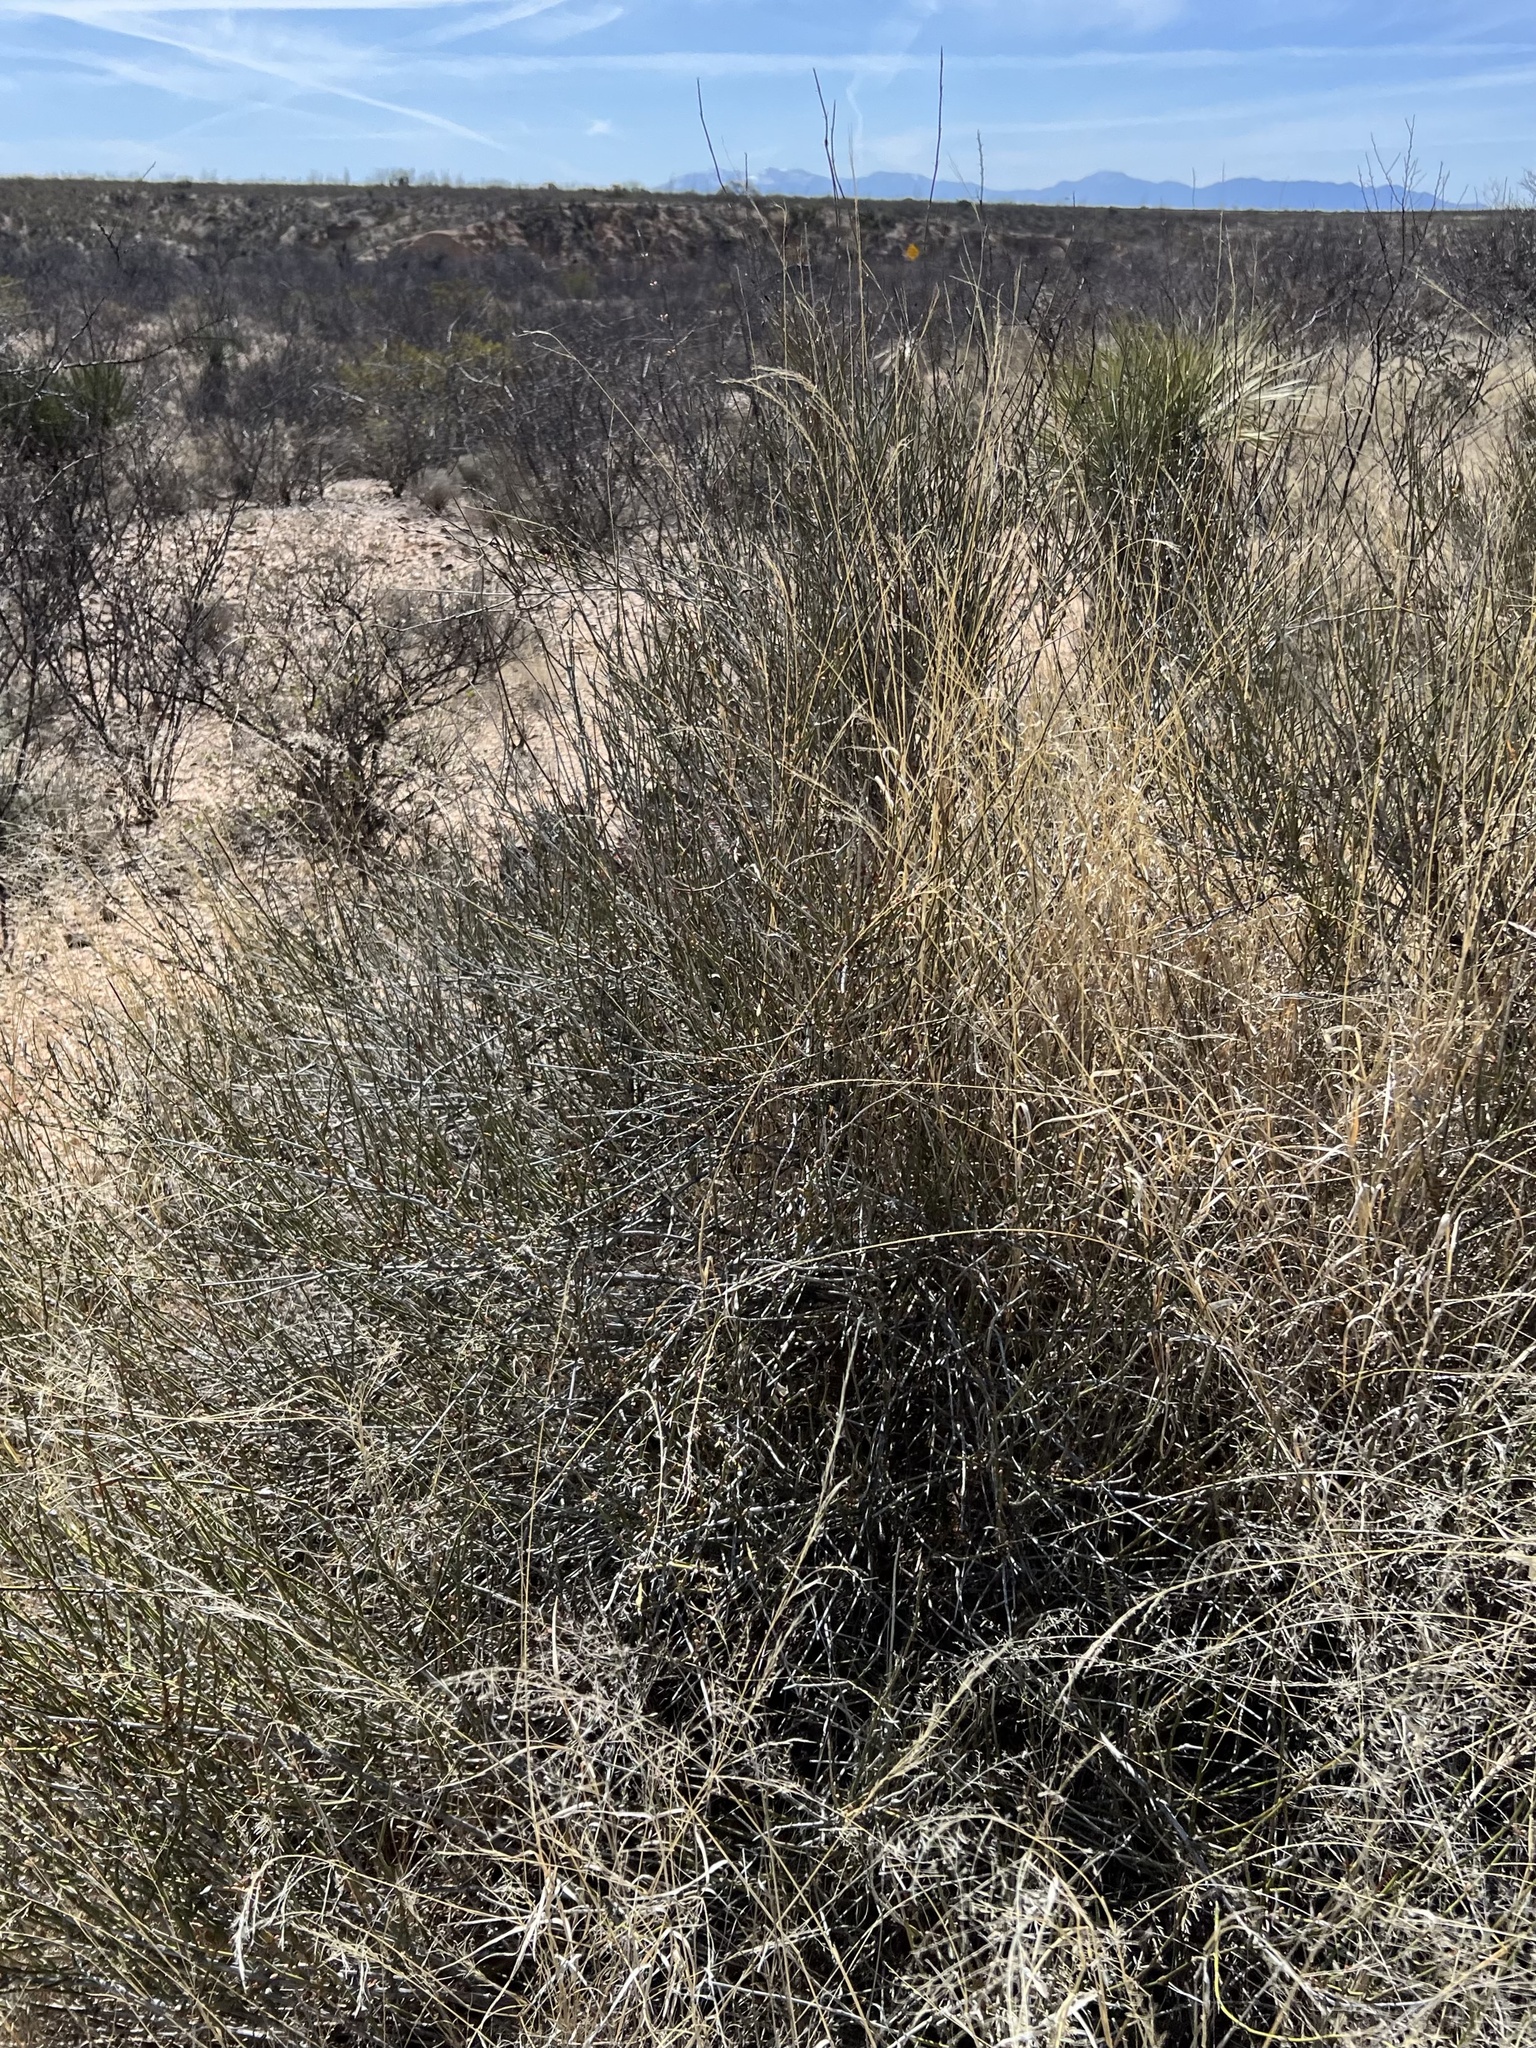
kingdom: Plantae
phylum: Tracheophyta
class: Gnetopsida
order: Ephedrales
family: Ephedraceae
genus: Ephedra
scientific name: Ephedra trifurca
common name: Mexican-tea
